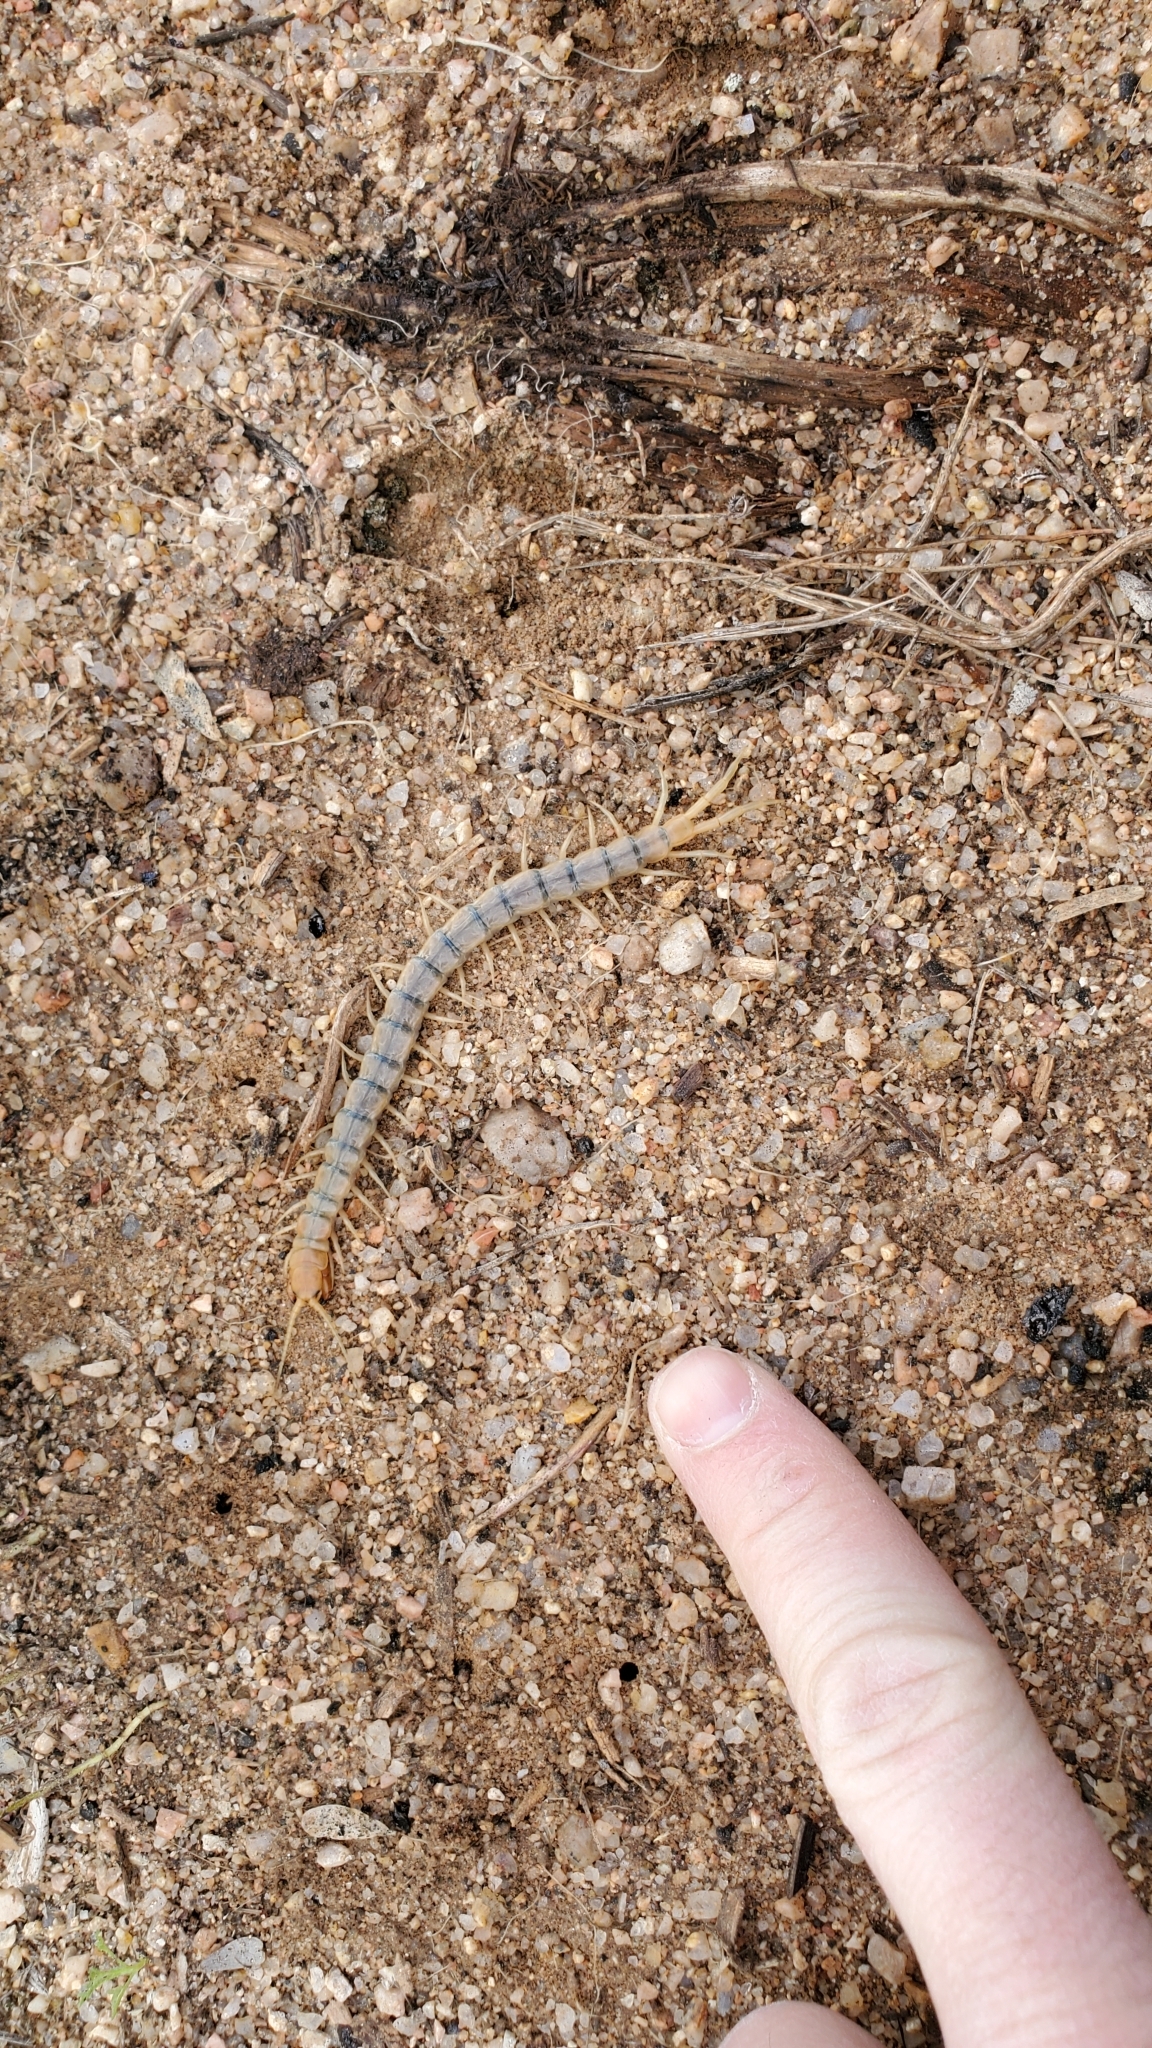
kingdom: Animalia
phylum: Arthropoda
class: Chilopoda
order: Scolopendromorpha
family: Scolopendridae
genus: Scolopendra
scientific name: Scolopendra polymorpha
